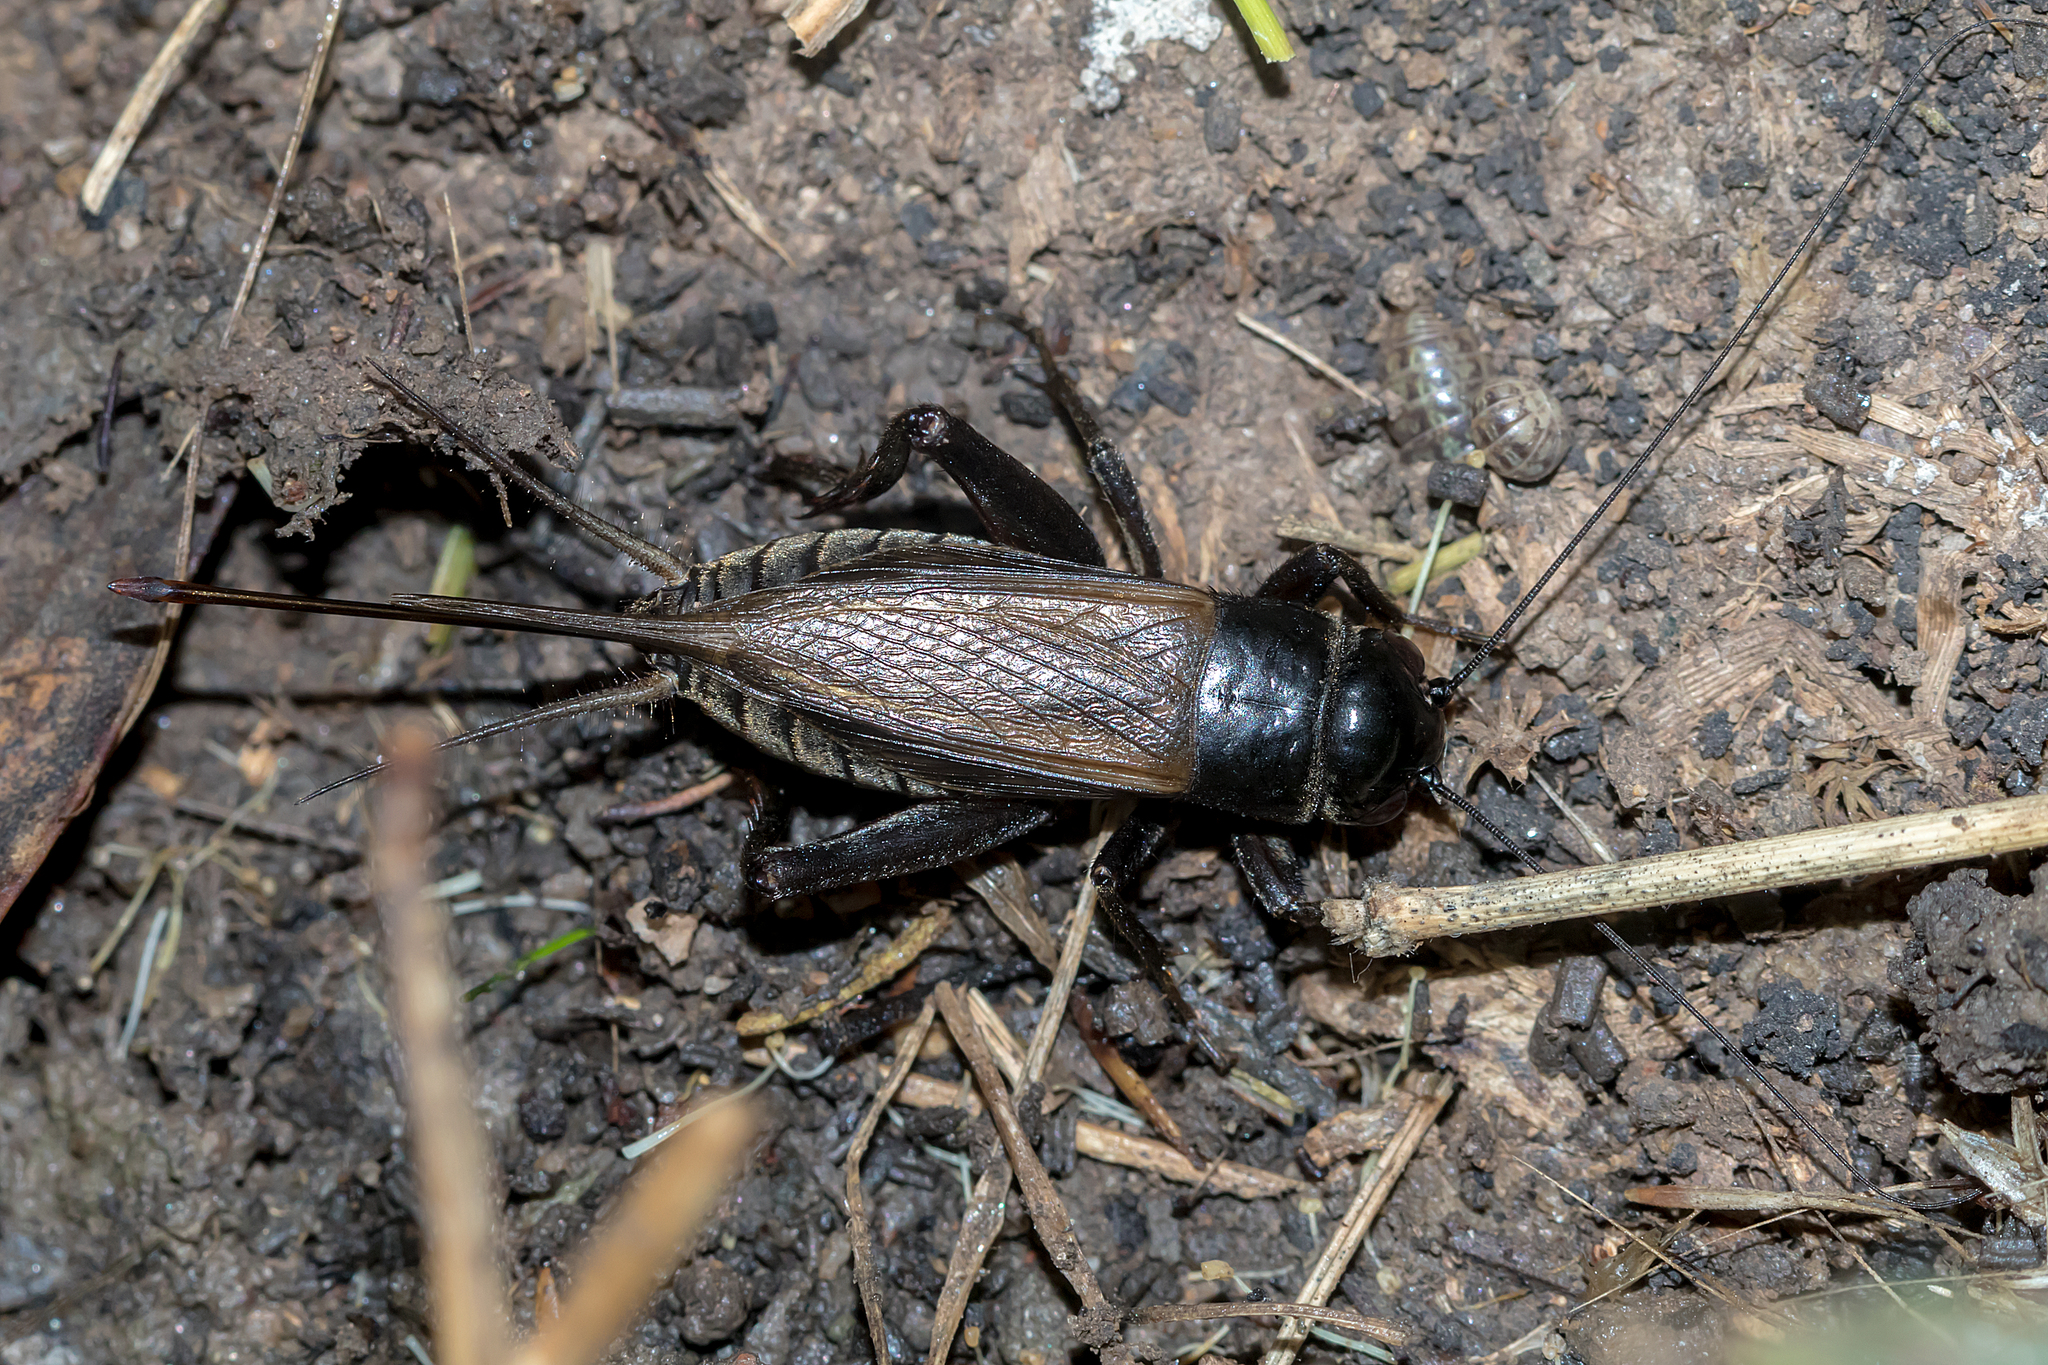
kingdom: Animalia
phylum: Arthropoda
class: Insecta
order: Orthoptera
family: Gryllidae
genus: Teleogryllus
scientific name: Teleogryllus commodus
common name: Black field cricket
